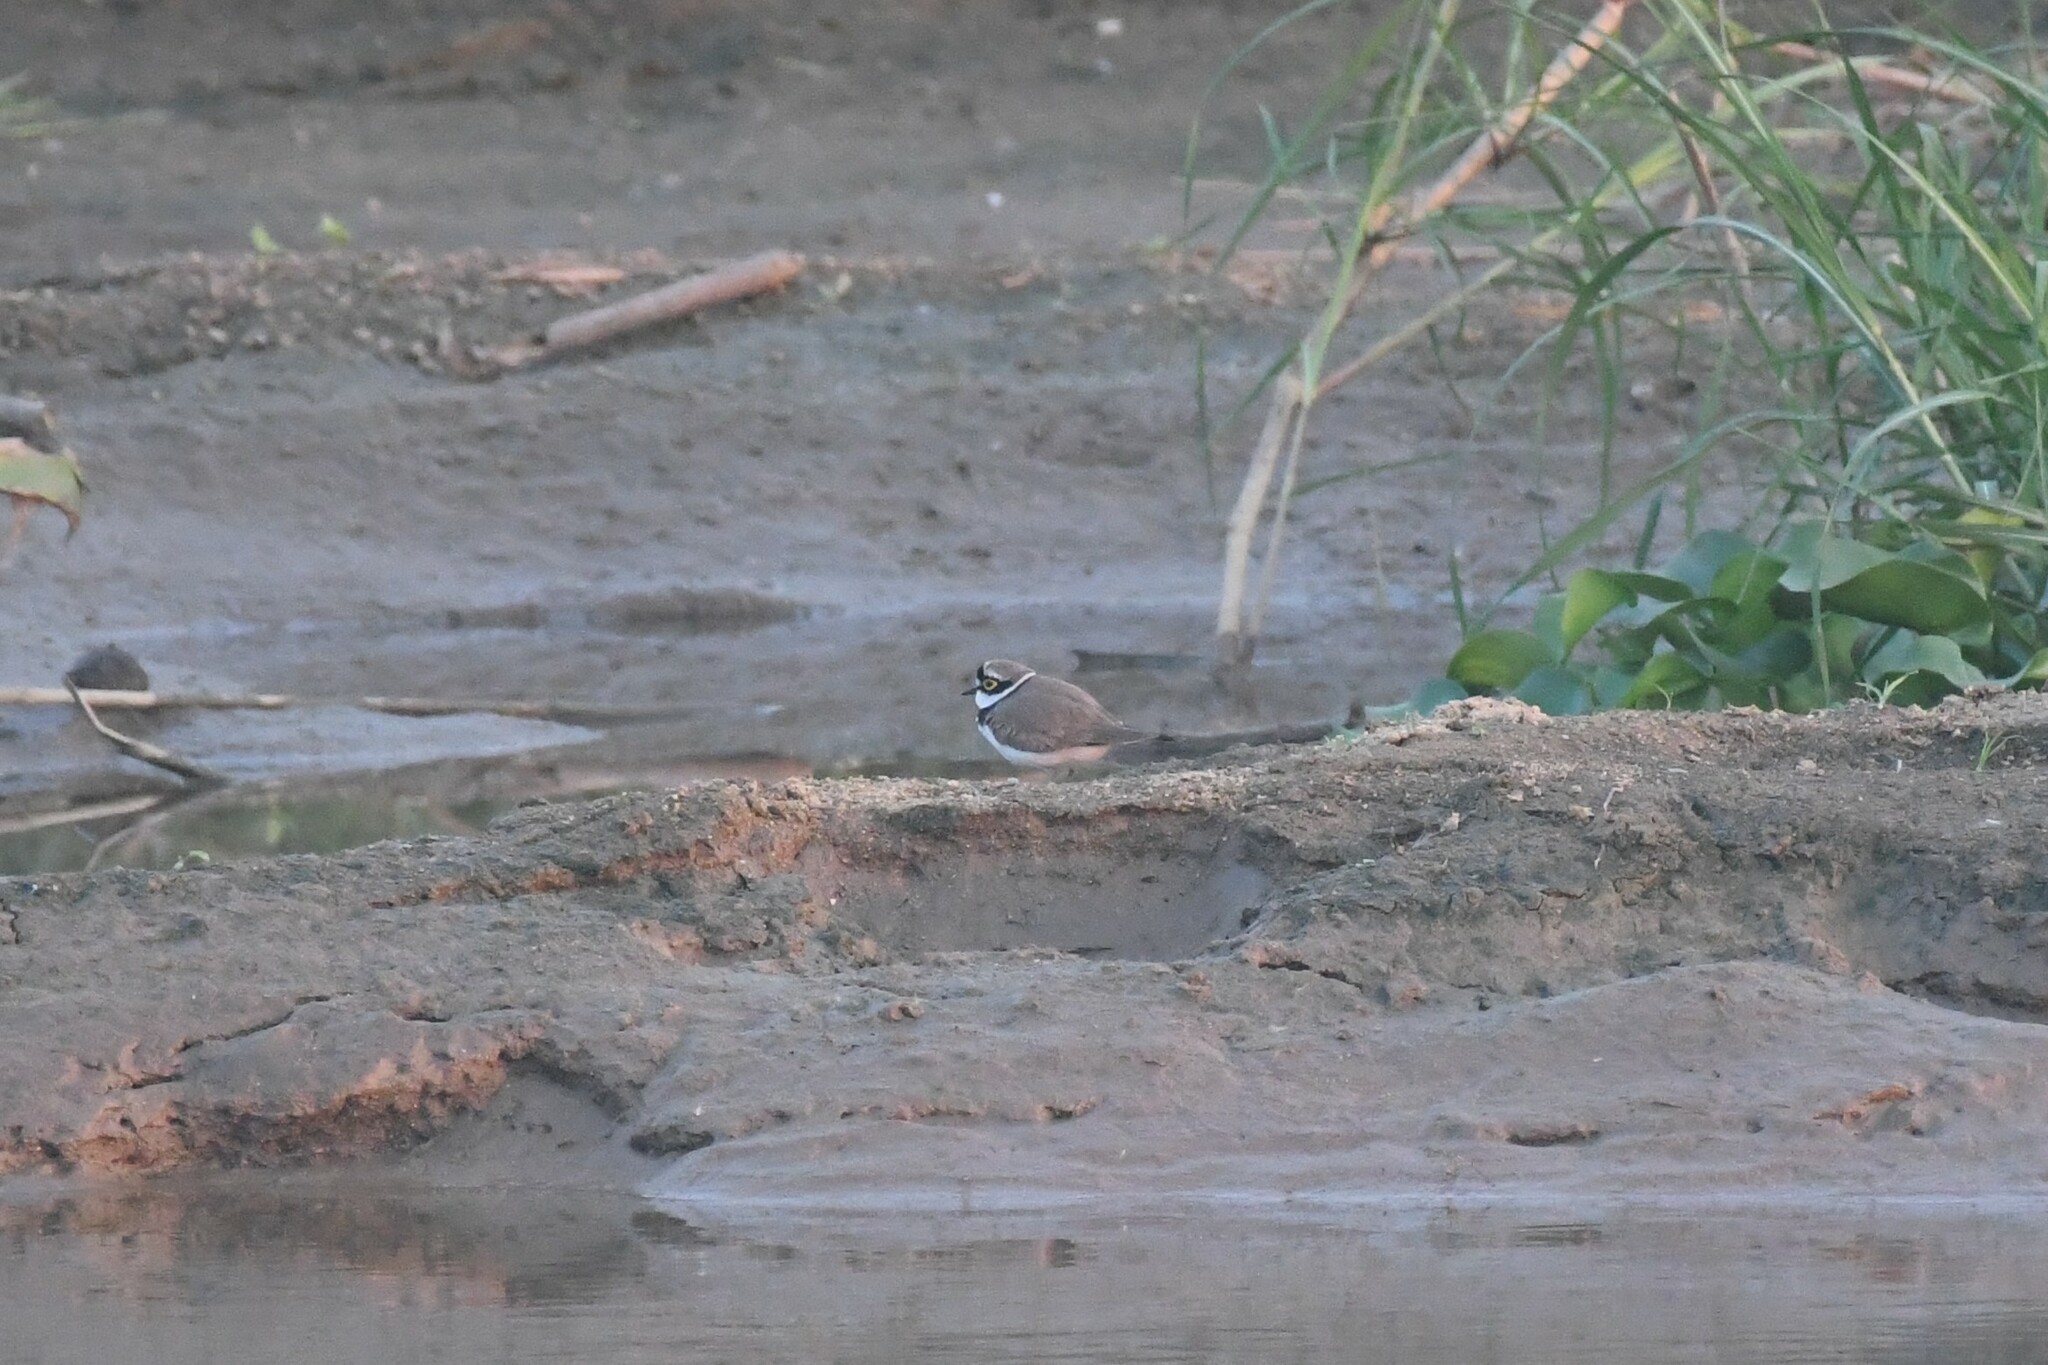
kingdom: Animalia
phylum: Chordata
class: Aves
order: Charadriiformes
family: Charadriidae
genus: Charadrius
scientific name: Charadrius dubius
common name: Little ringed plover
